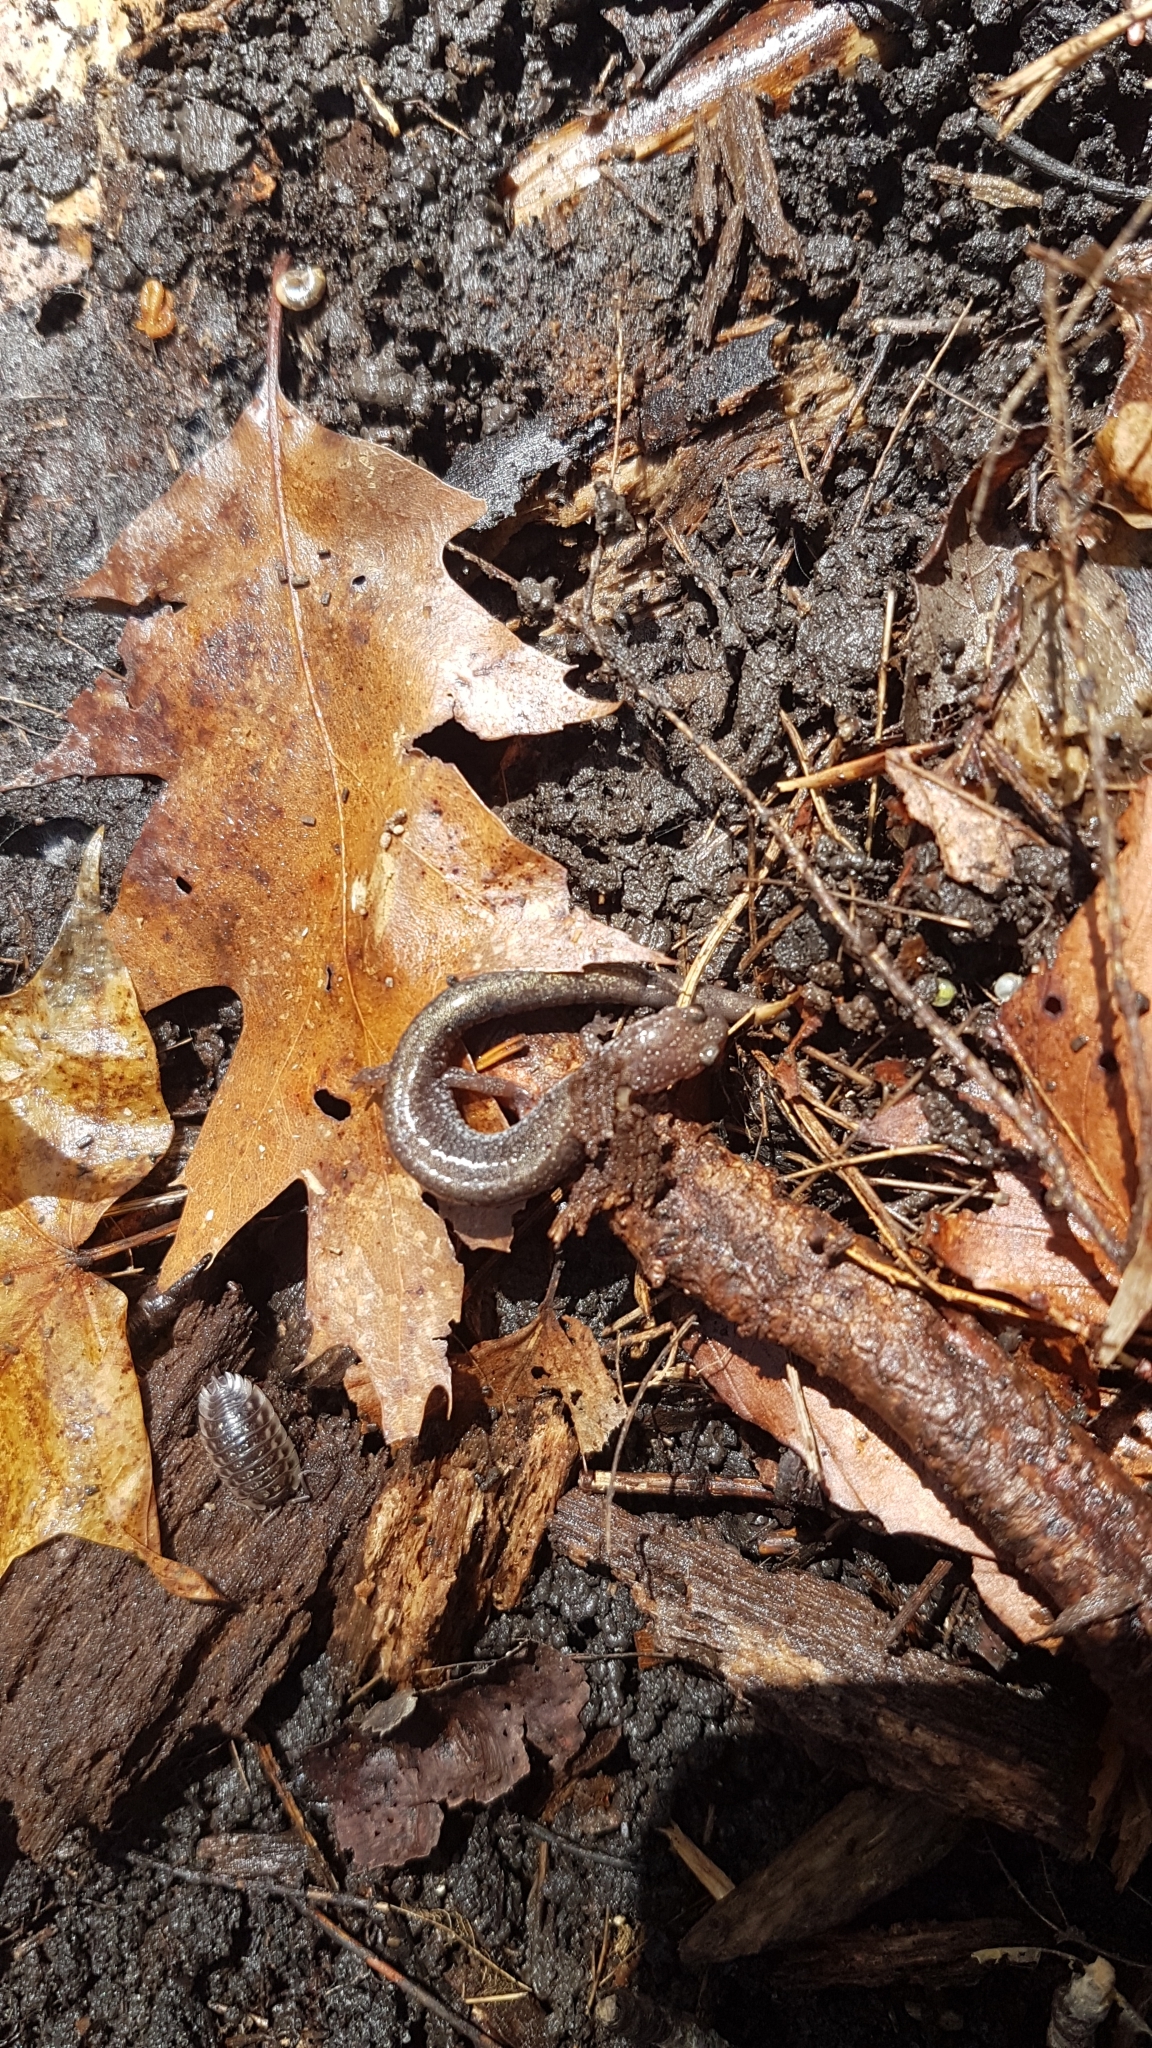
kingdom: Animalia
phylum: Chordata
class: Amphibia
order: Caudata
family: Plethodontidae
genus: Plethodon
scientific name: Plethodon cinereus
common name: Redback salamander
